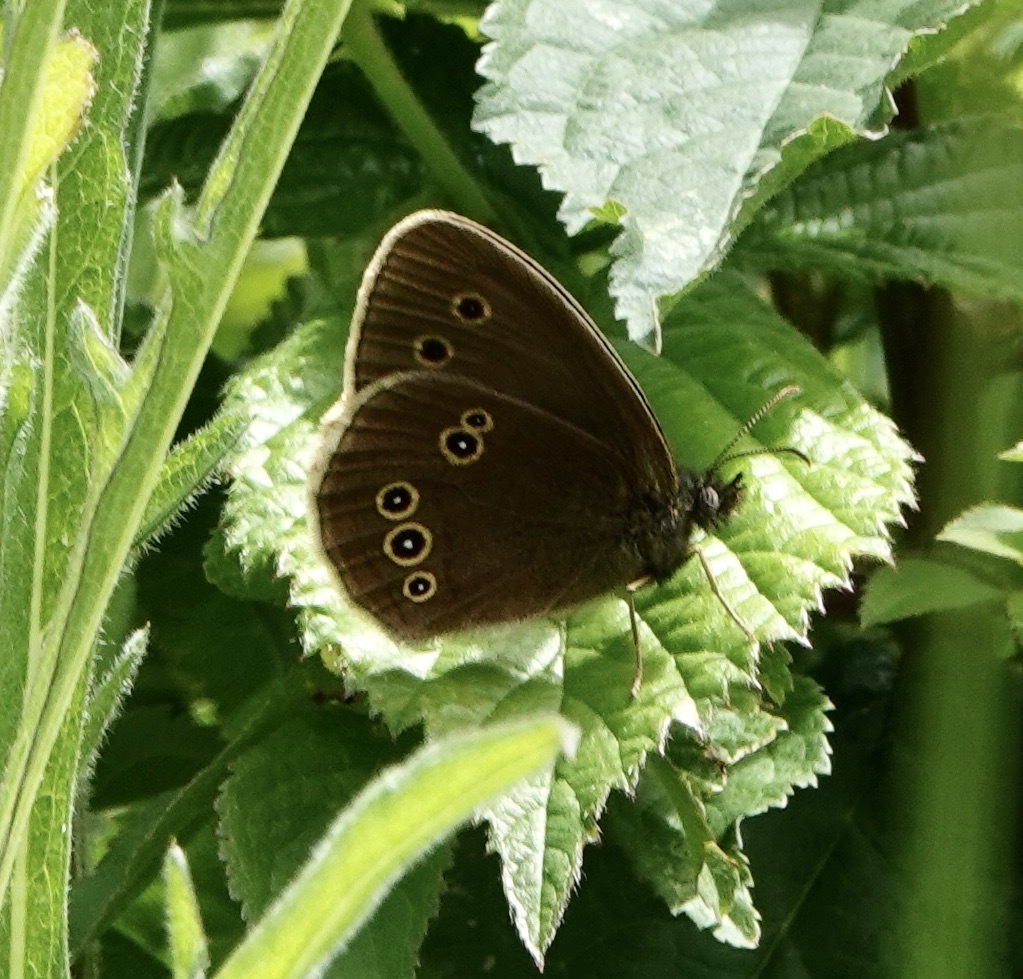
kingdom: Animalia
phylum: Arthropoda
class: Insecta
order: Lepidoptera
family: Nymphalidae
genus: Aphantopus
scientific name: Aphantopus hyperantus
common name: Ringlet
